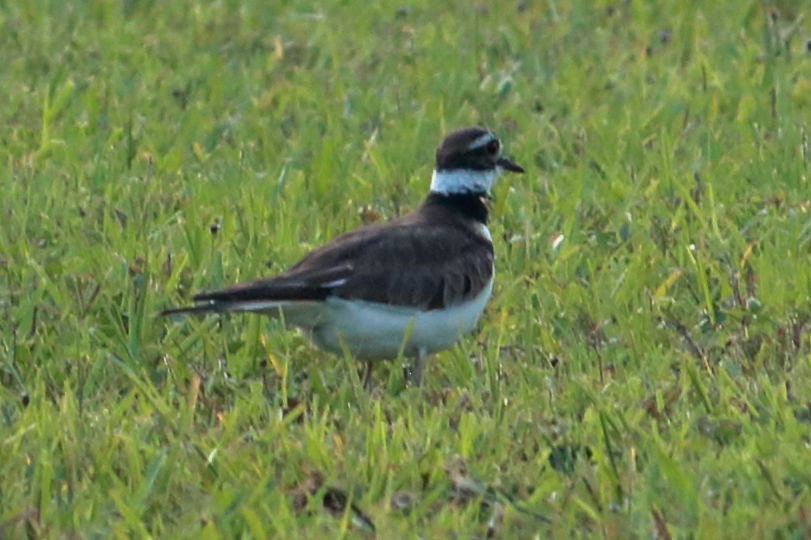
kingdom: Animalia
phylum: Chordata
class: Aves
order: Charadriiformes
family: Charadriidae
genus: Charadrius
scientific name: Charadrius vociferus
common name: Killdeer
